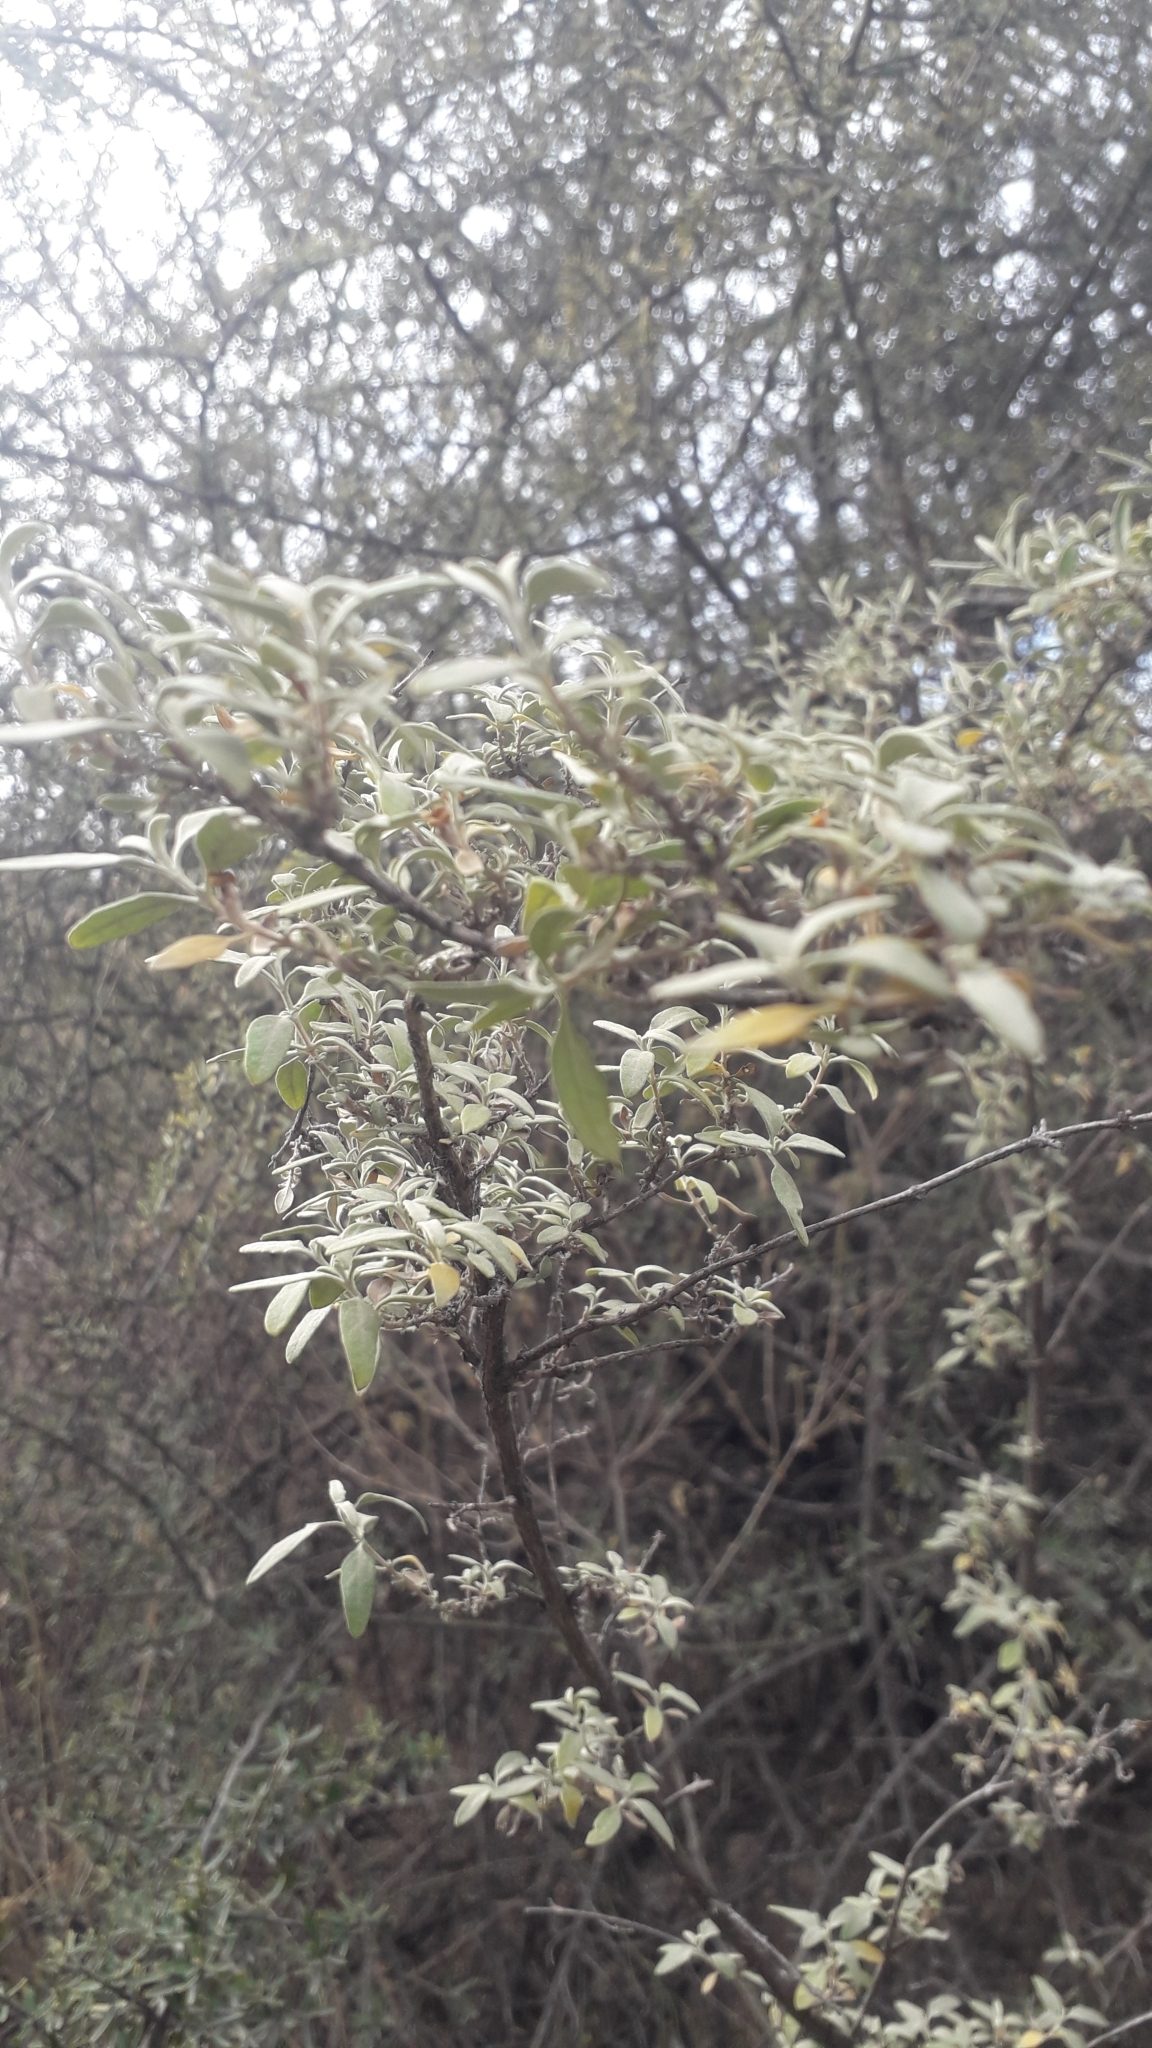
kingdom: Plantae
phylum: Tracheophyta
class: Magnoliopsida
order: Lamiales
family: Scrophulariaceae
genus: Buddleja
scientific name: Buddleja mendozensis
